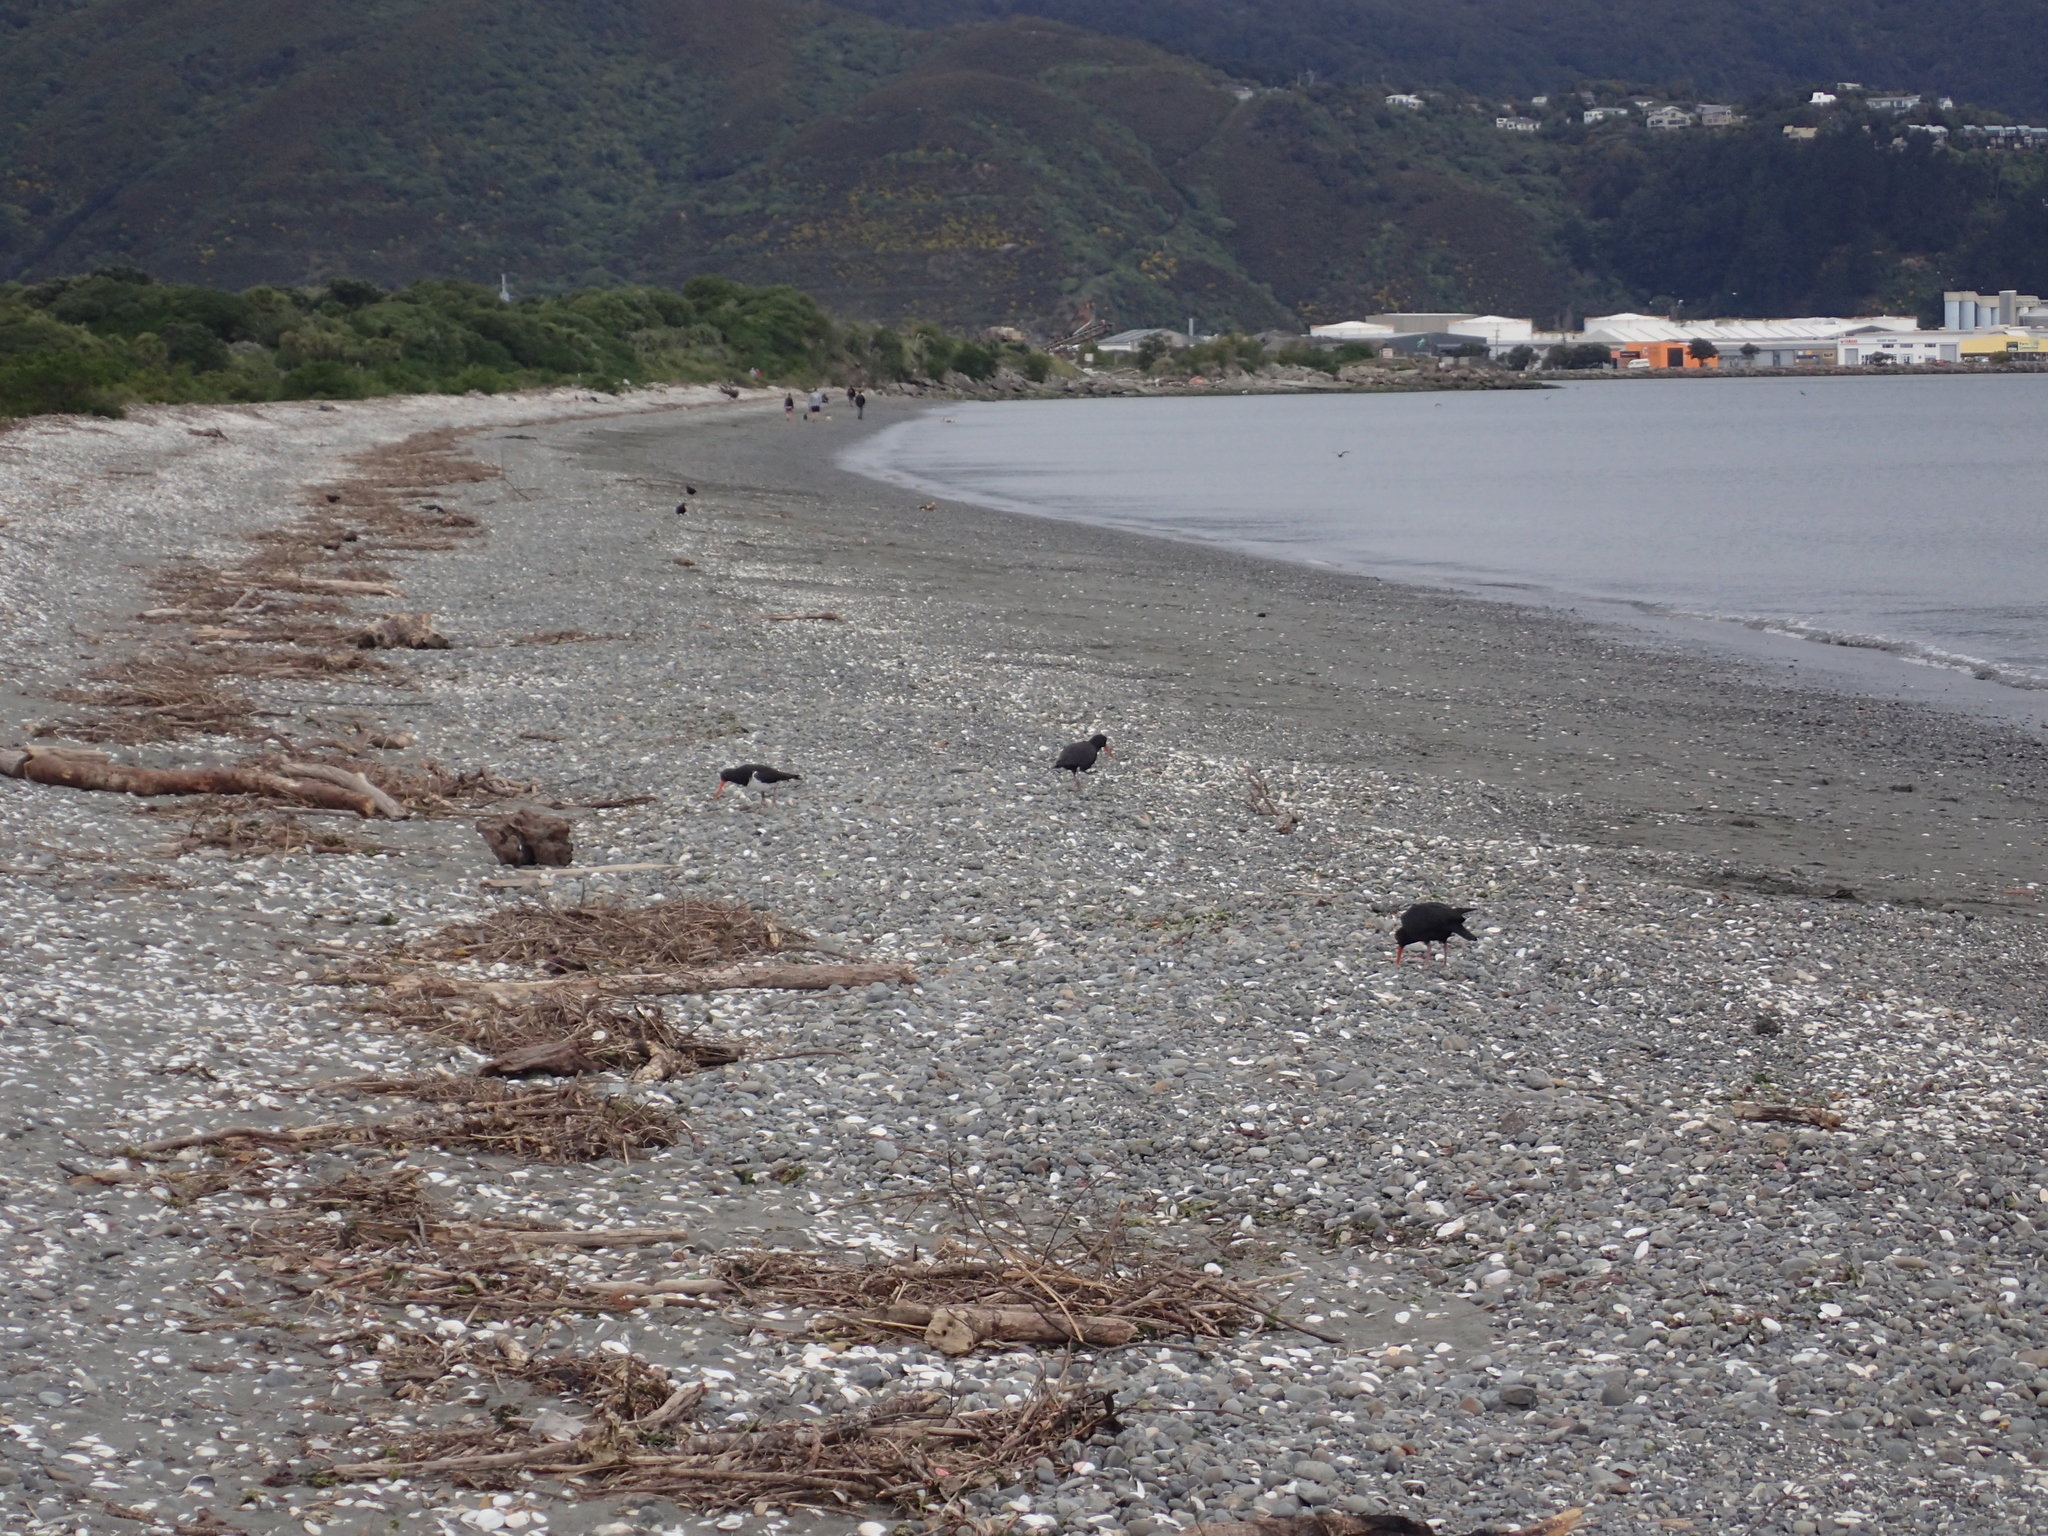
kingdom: Animalia
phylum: Chordata
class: Aves
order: Charadriiformes
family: Haematopodidae
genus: Haematopus
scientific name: Haematopus unicolor
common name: Variable oystercatcher
